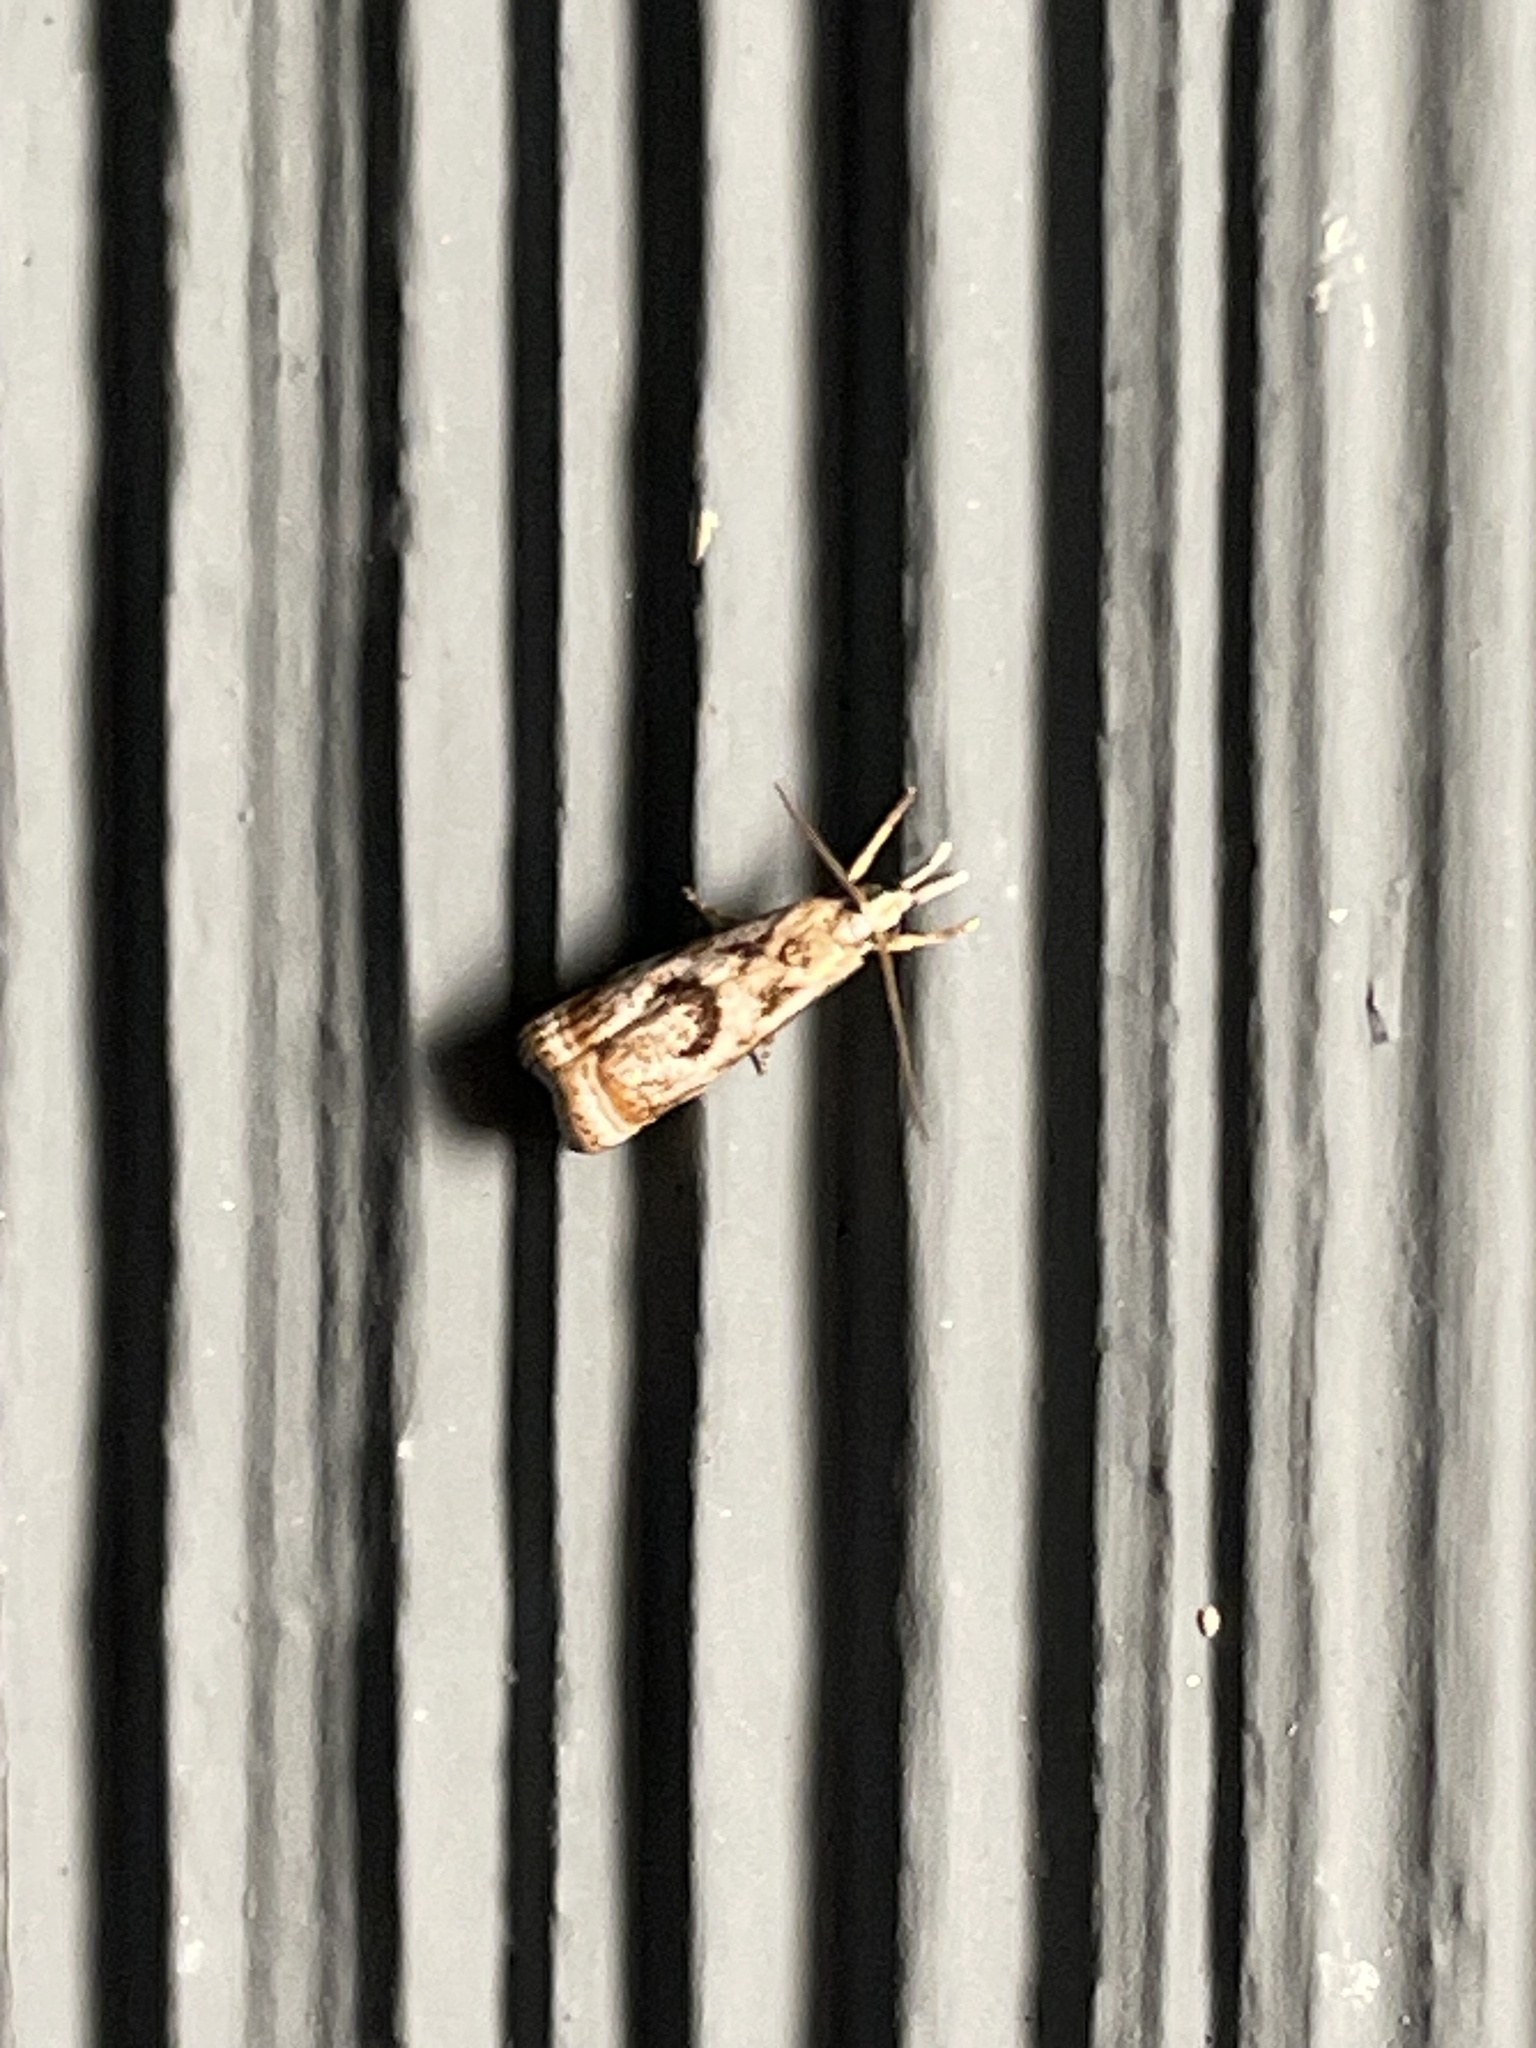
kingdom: Animalia
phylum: Arthropoda
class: Insecta
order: Lepidoptera
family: Crambidae
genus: Microcrambus
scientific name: Microcrambus elegans
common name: Elegant grass-veneer
